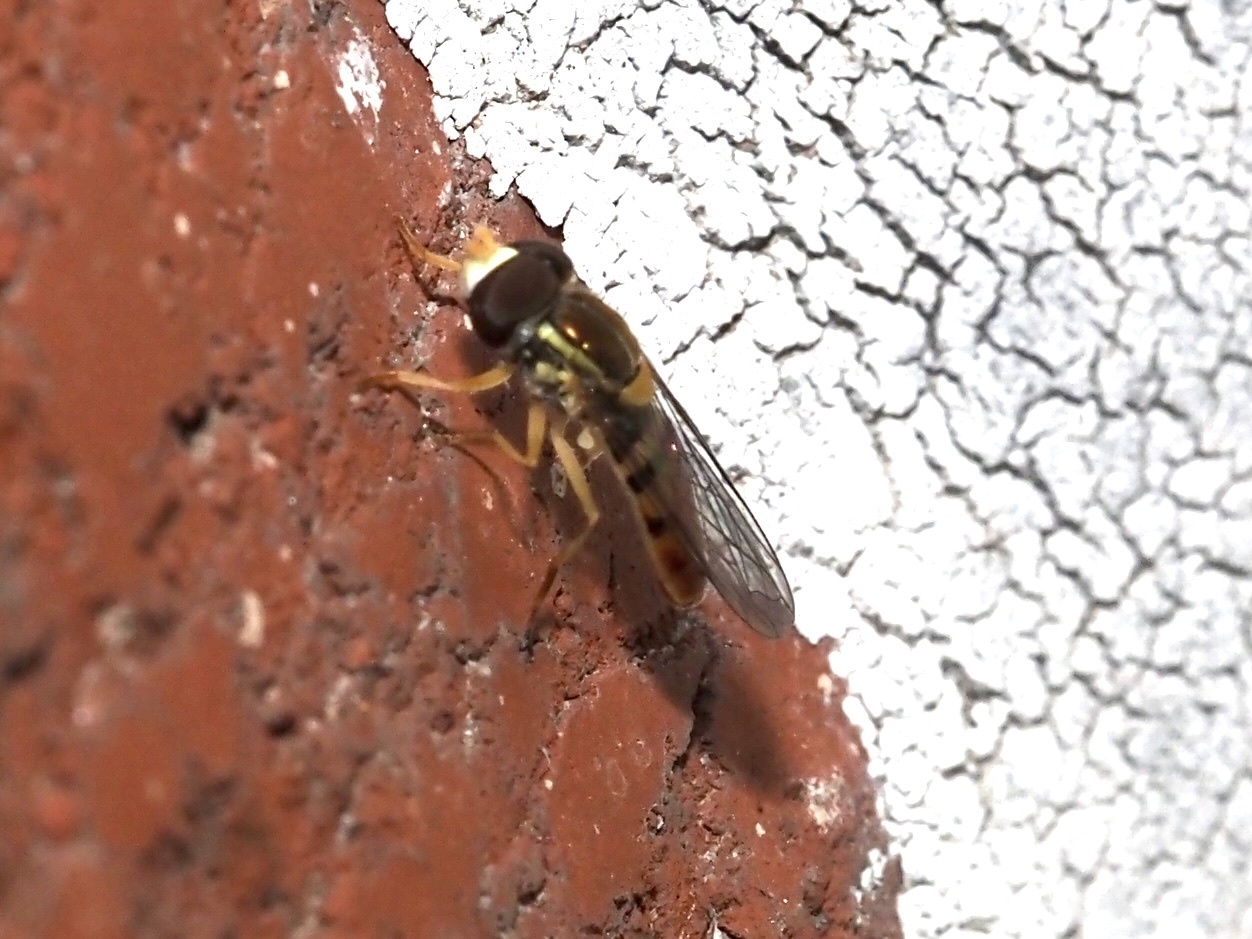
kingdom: Animalia
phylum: Arthropoda
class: Insecta
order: Diptera
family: Syrphidae
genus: Toxomerus
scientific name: Toxomerus marginatus
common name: Syrphid fly
